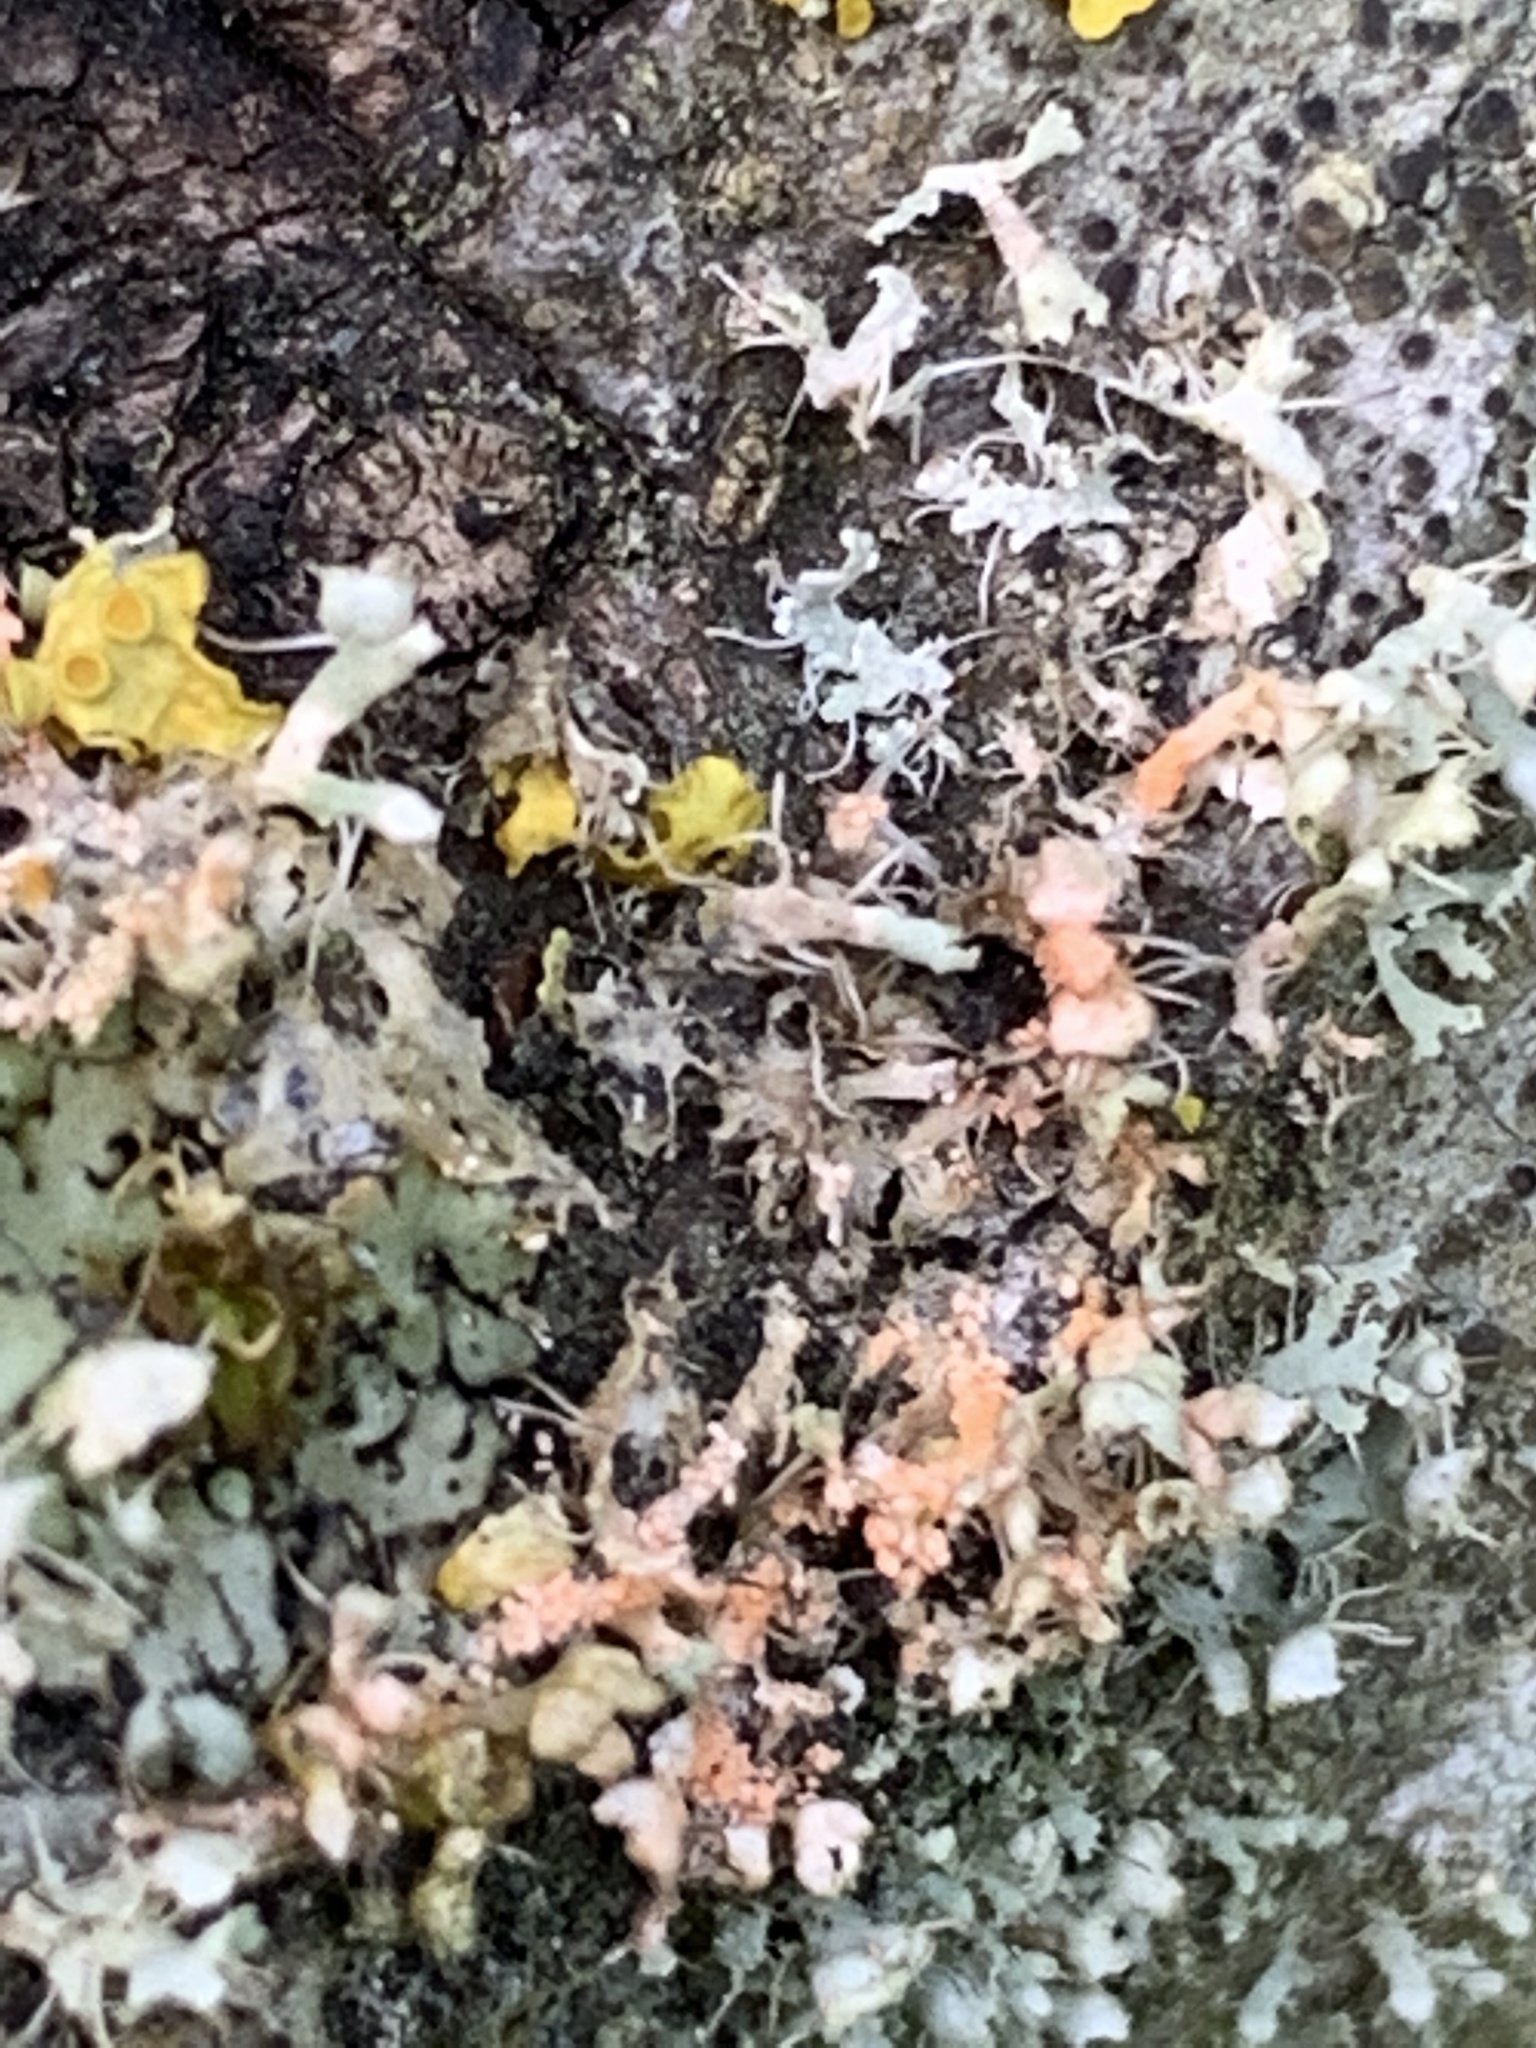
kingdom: Fungi
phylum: Basidiomycota
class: Agaricomycetes
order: Corticiales
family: Corticiaceae
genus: Erythricium
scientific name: Erythricium aurantiacum
